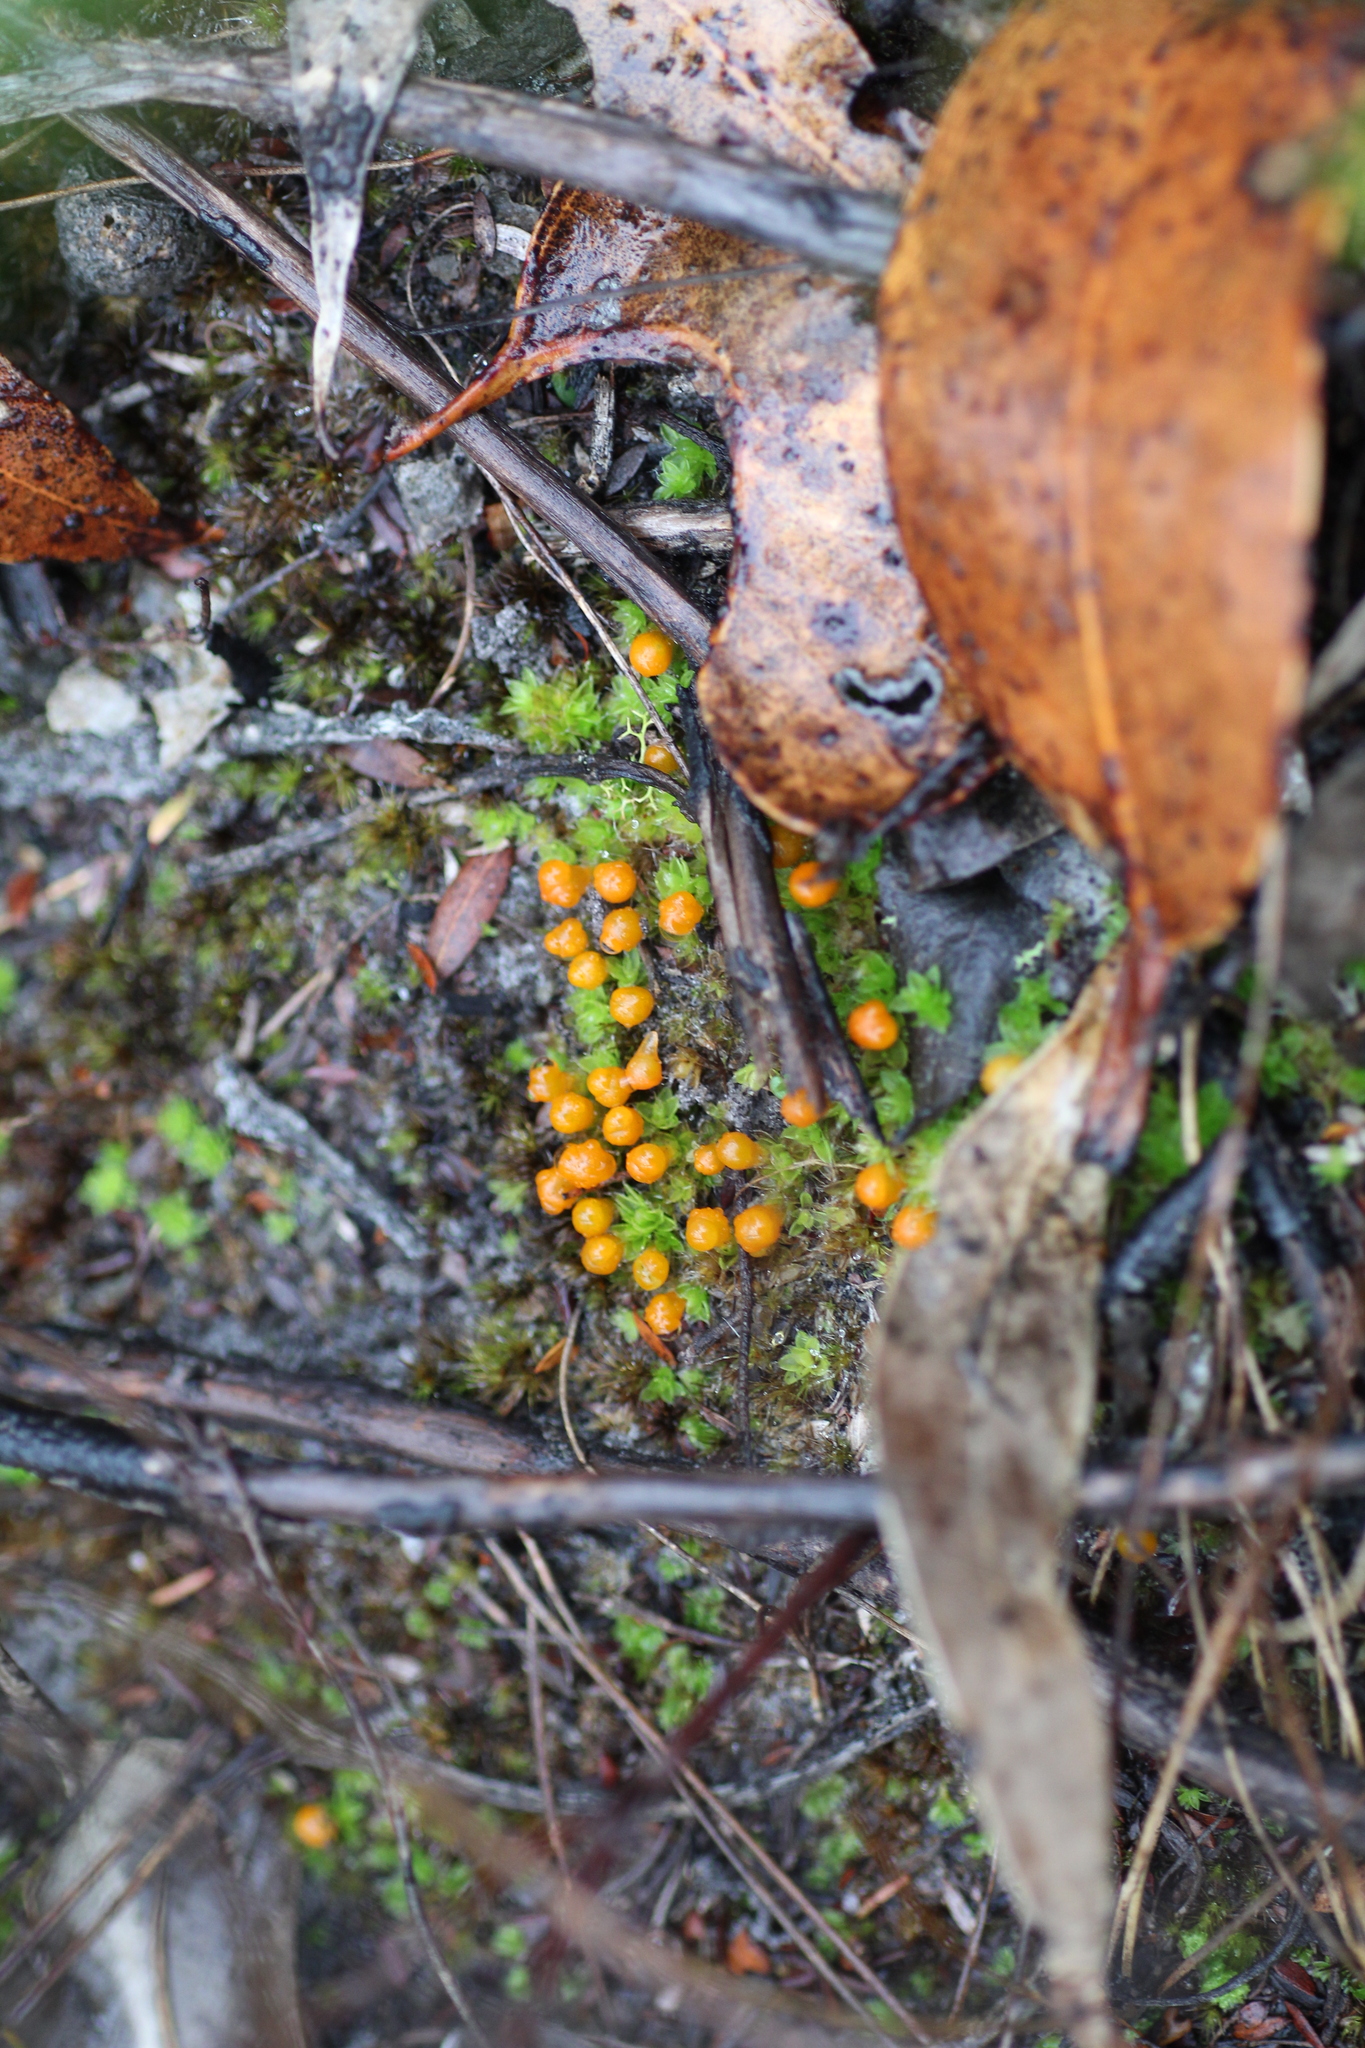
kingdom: Plantae
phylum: Bryophyta
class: Bryopsida
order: Pottiales
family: Pleurophascaceae
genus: Pleurophascum
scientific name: Pleurophascum occidentale
